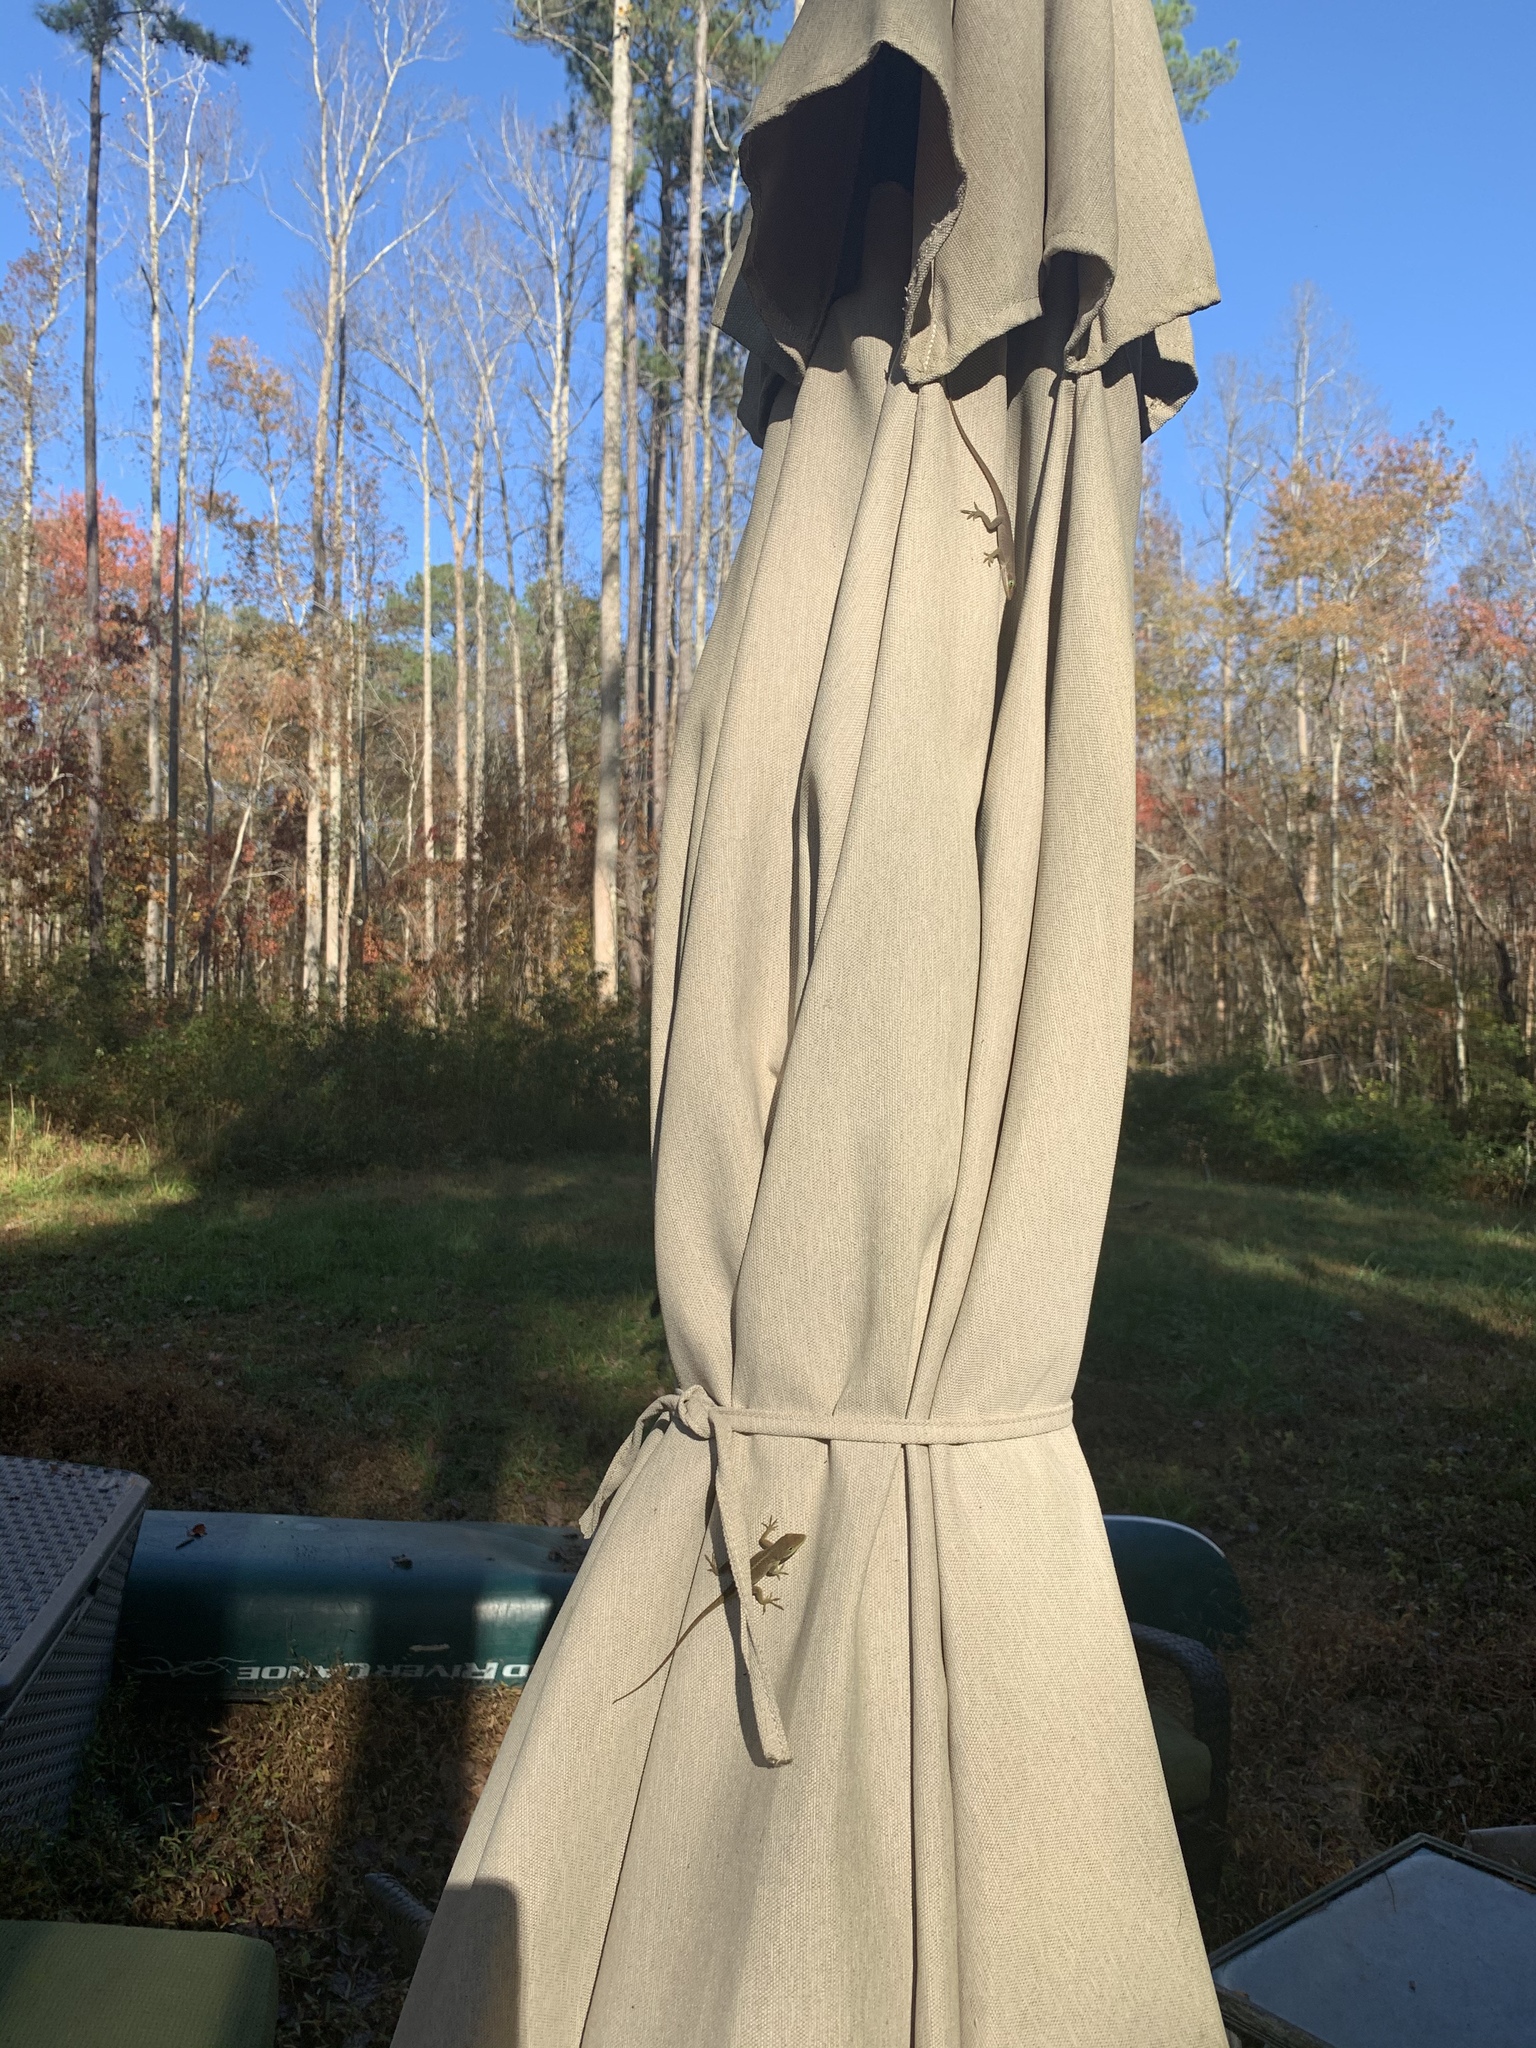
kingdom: Animalia
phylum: Chordata
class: Squamata
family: Dactyloidae
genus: Anolis
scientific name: Anolis carolinensis
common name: Green anole
